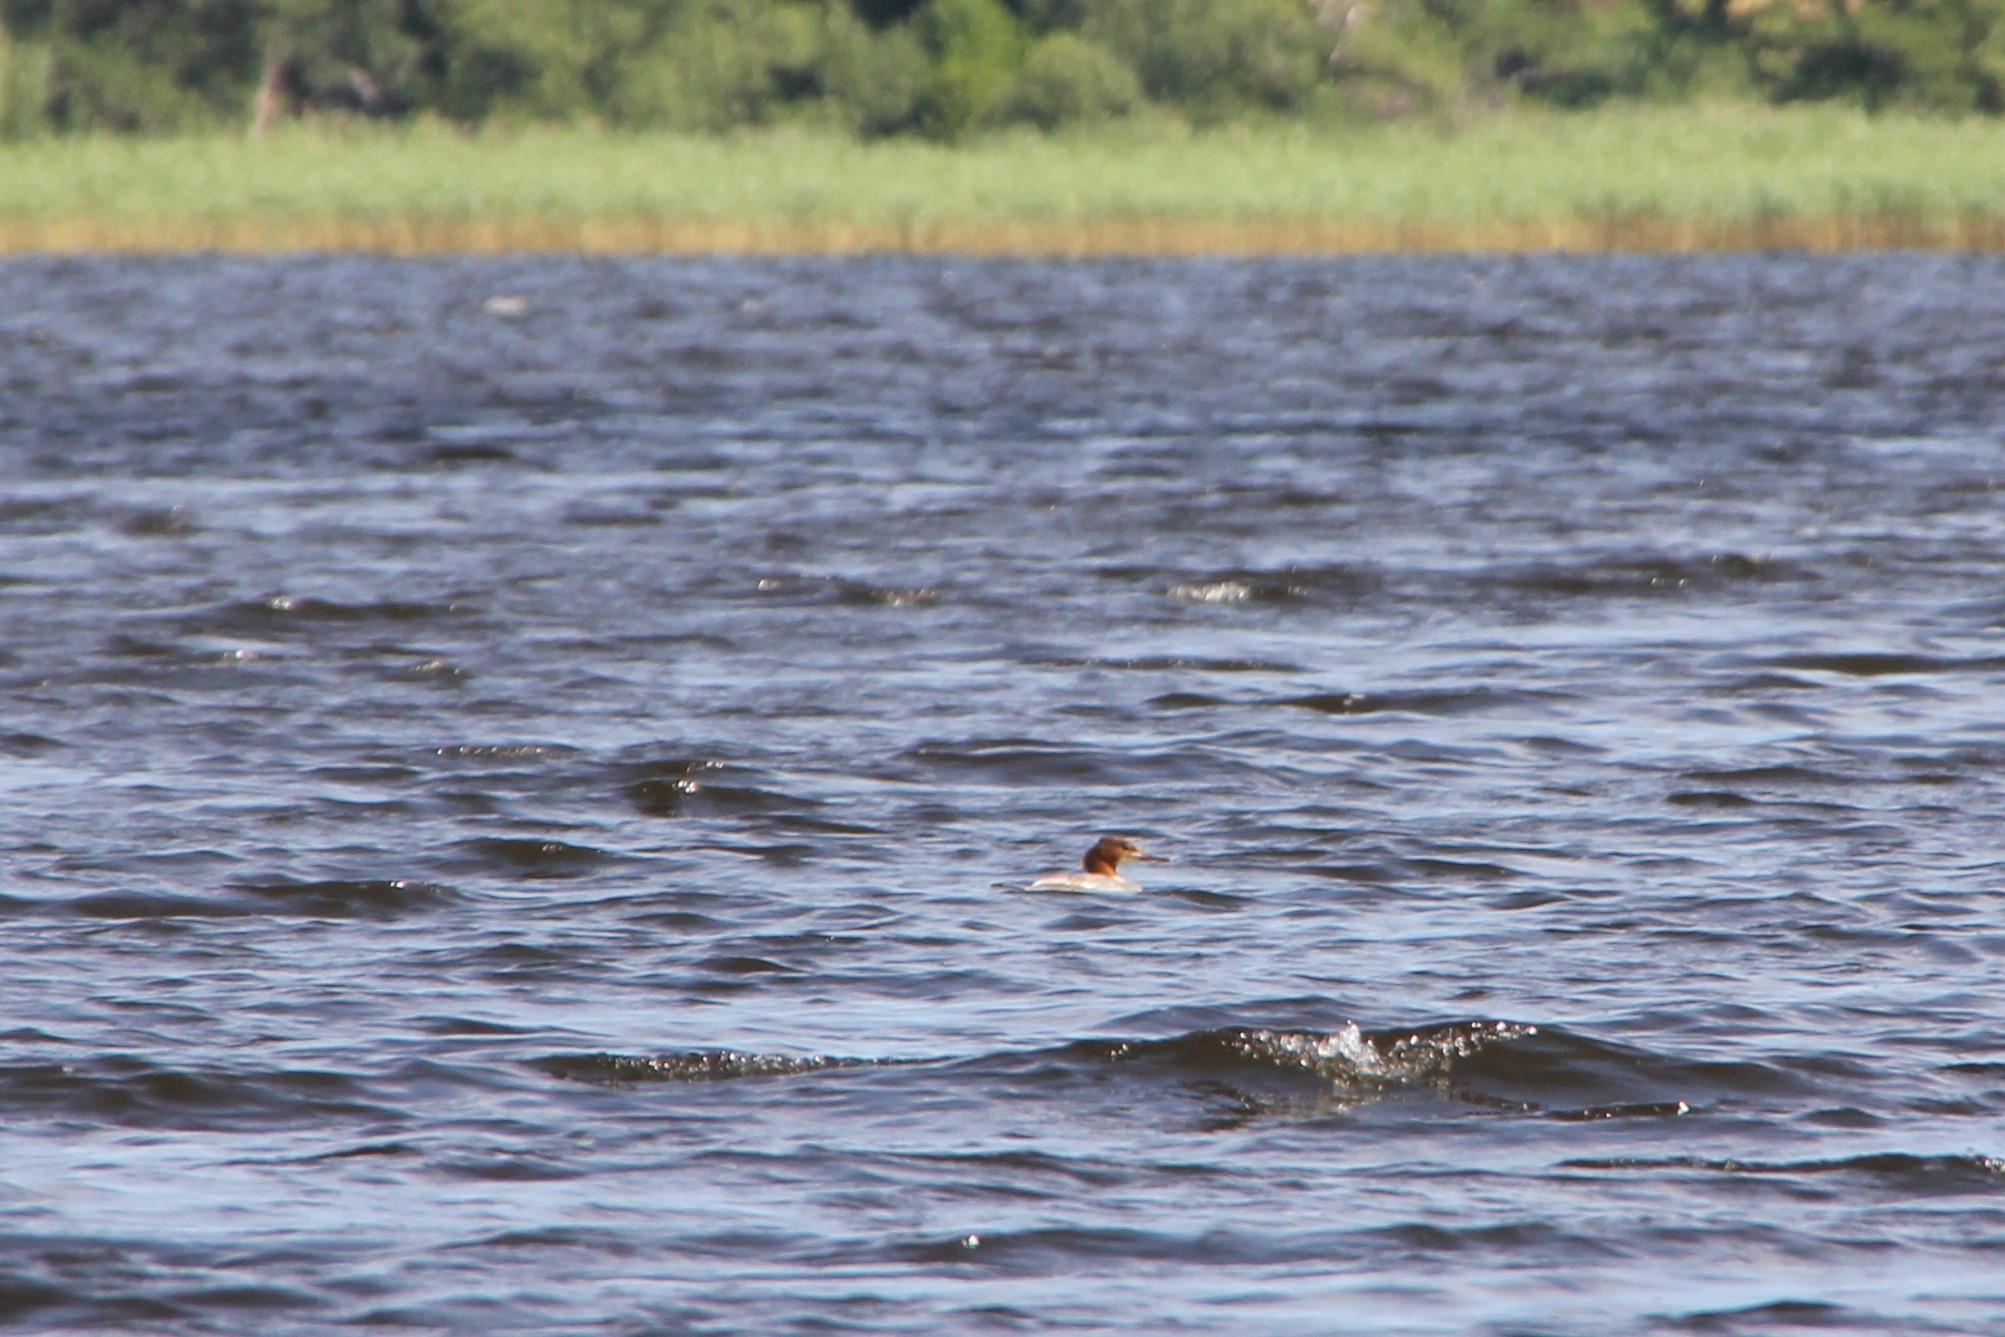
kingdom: Animalia
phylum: Chordata
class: Aves
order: Anseriformes
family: Anatidae
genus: Mergus
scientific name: Mergus merganser
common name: Common merganser
